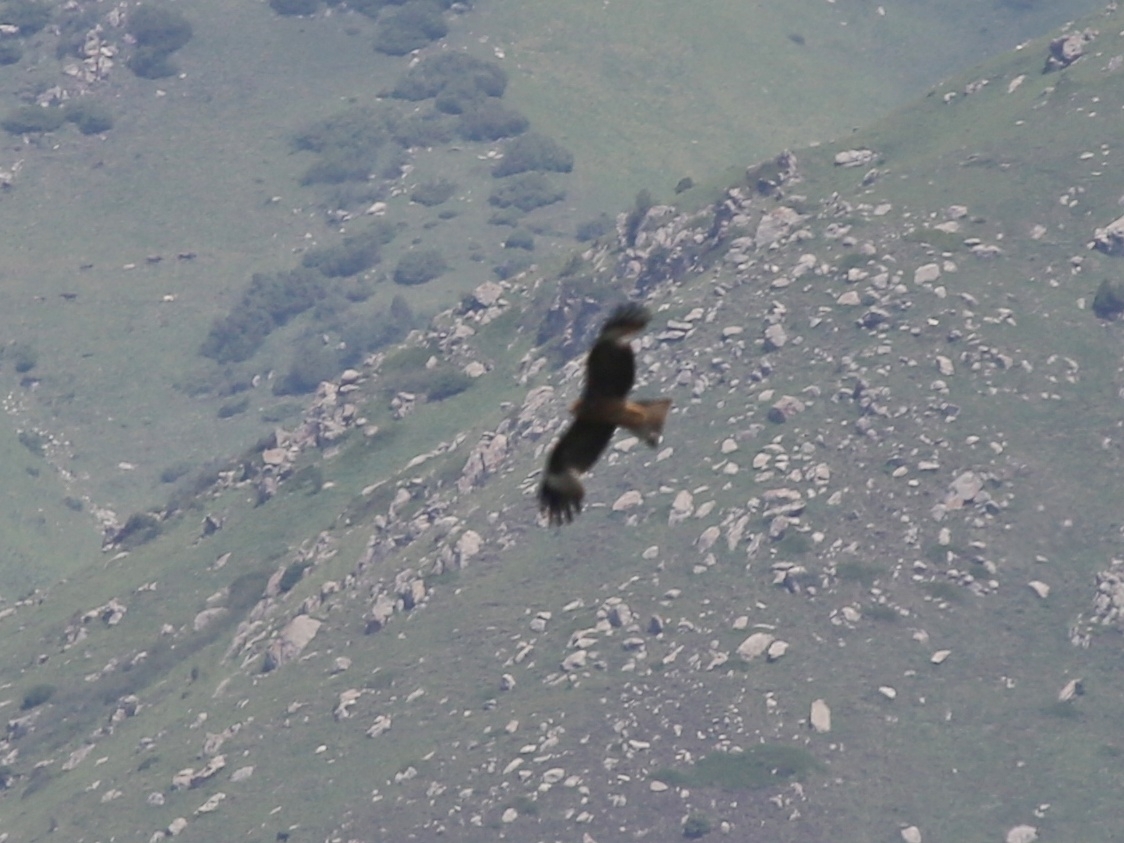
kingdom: Animalia
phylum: Chordata
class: Aves
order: Accipitriformes
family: Accipitridae
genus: Milvus
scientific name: Milvus migrans
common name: Black kite
